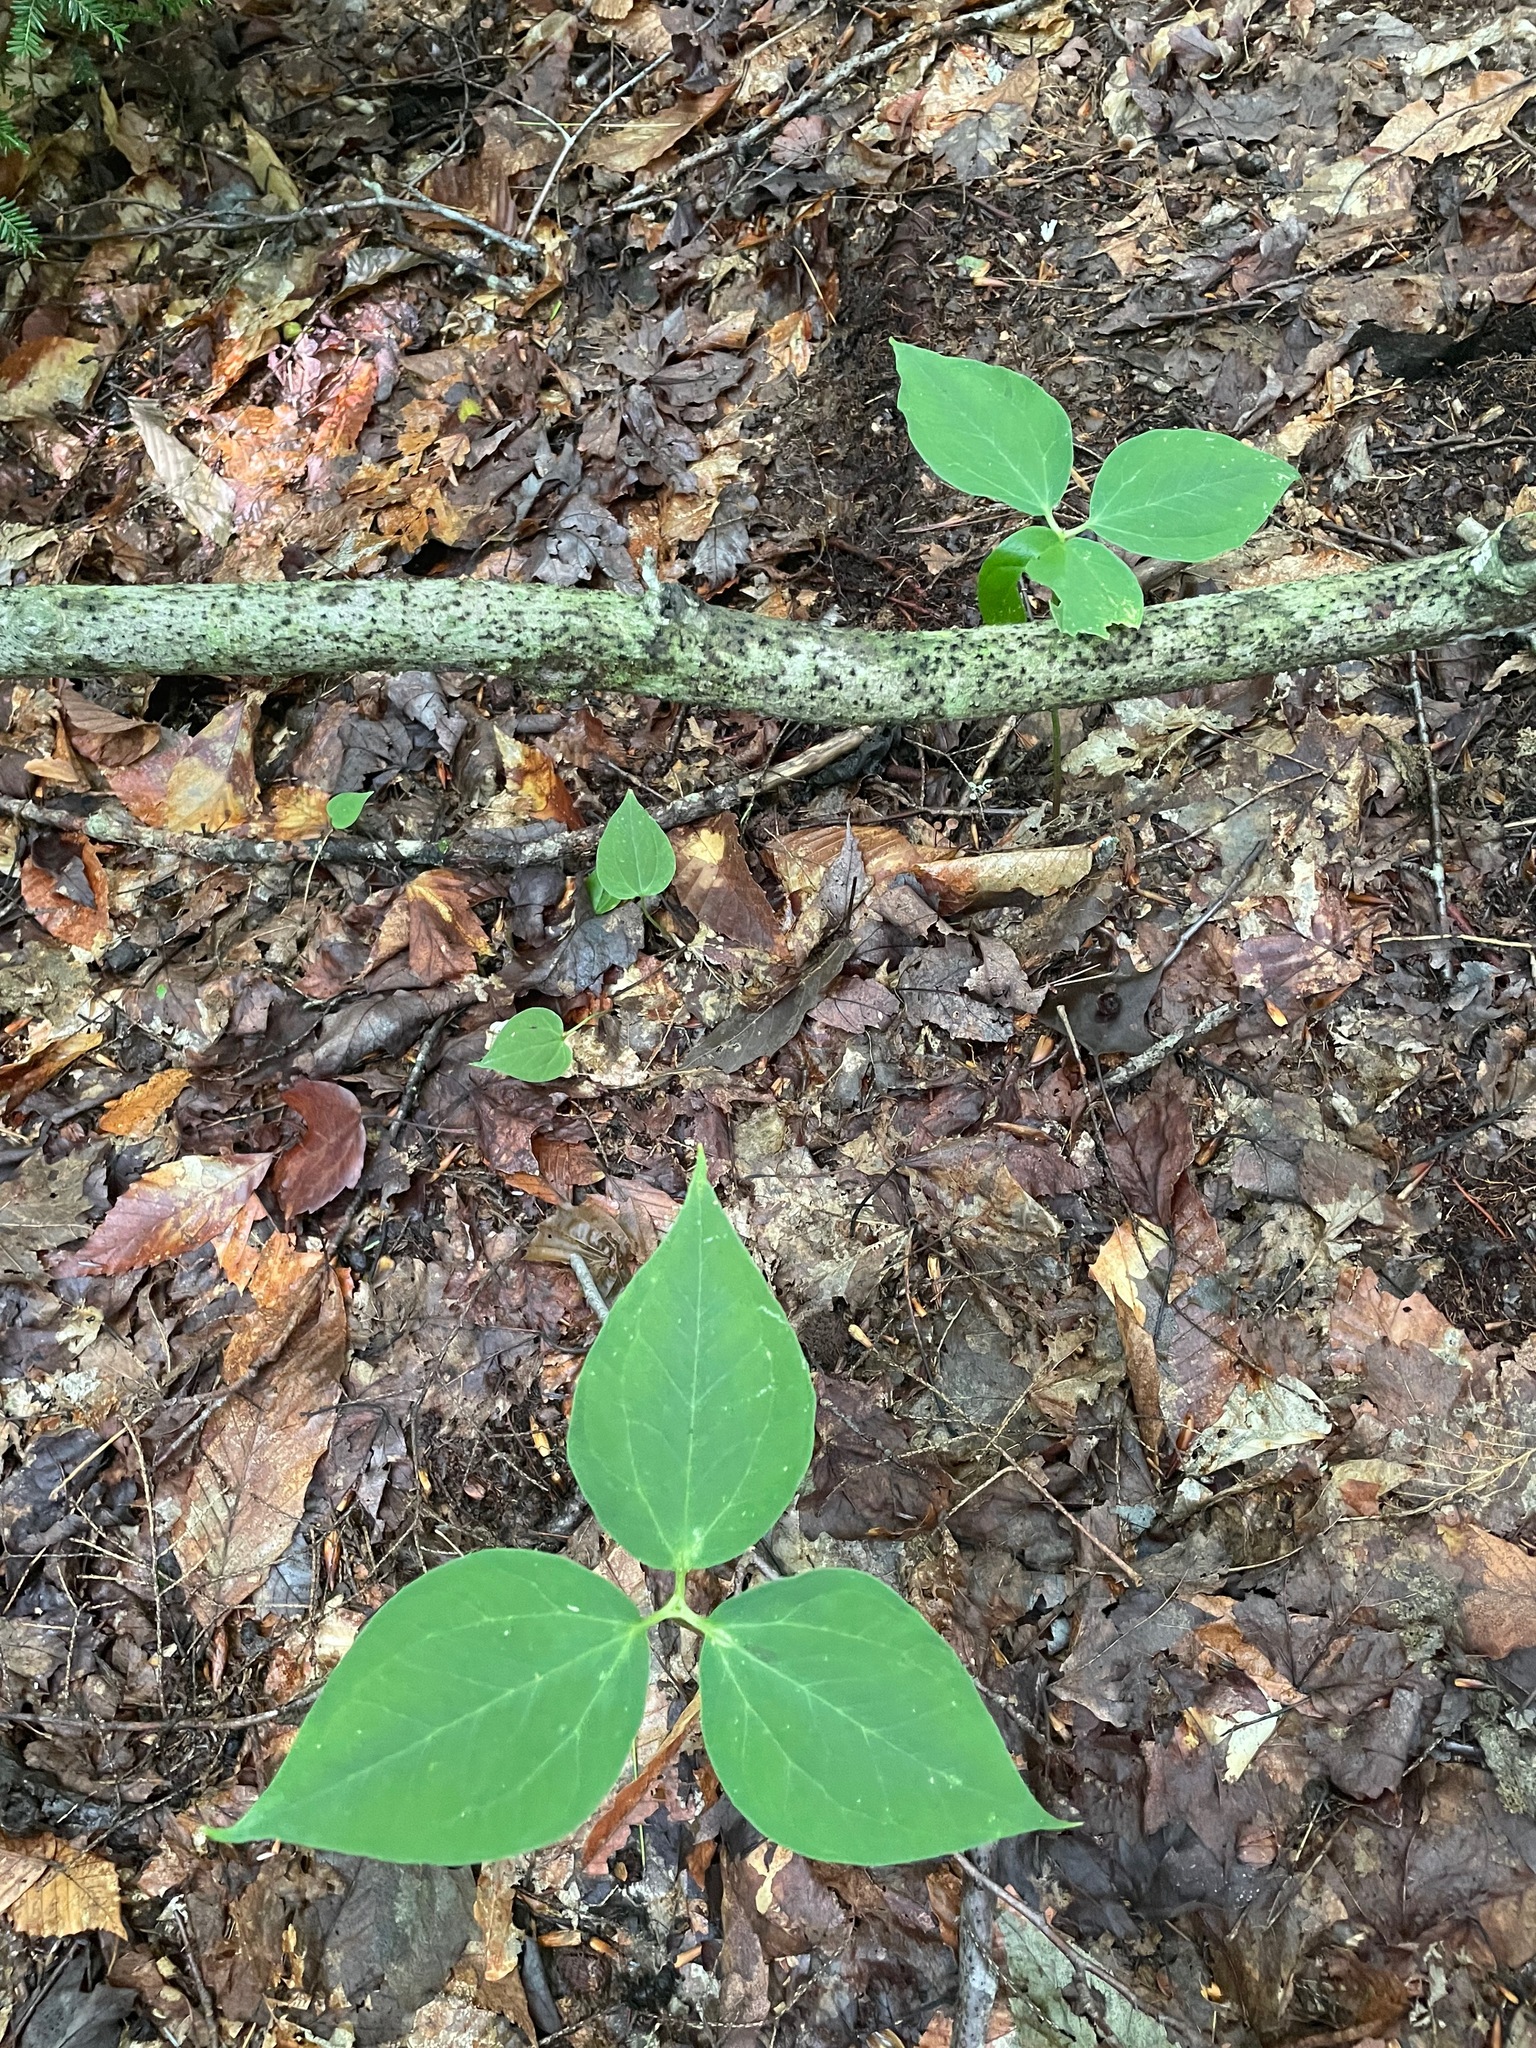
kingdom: Plantae
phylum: Tracheophyta
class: Liliopsida
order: Liliales
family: Melanthiaceae
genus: Trillium
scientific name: Trillium undulatum
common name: Paint trillium
